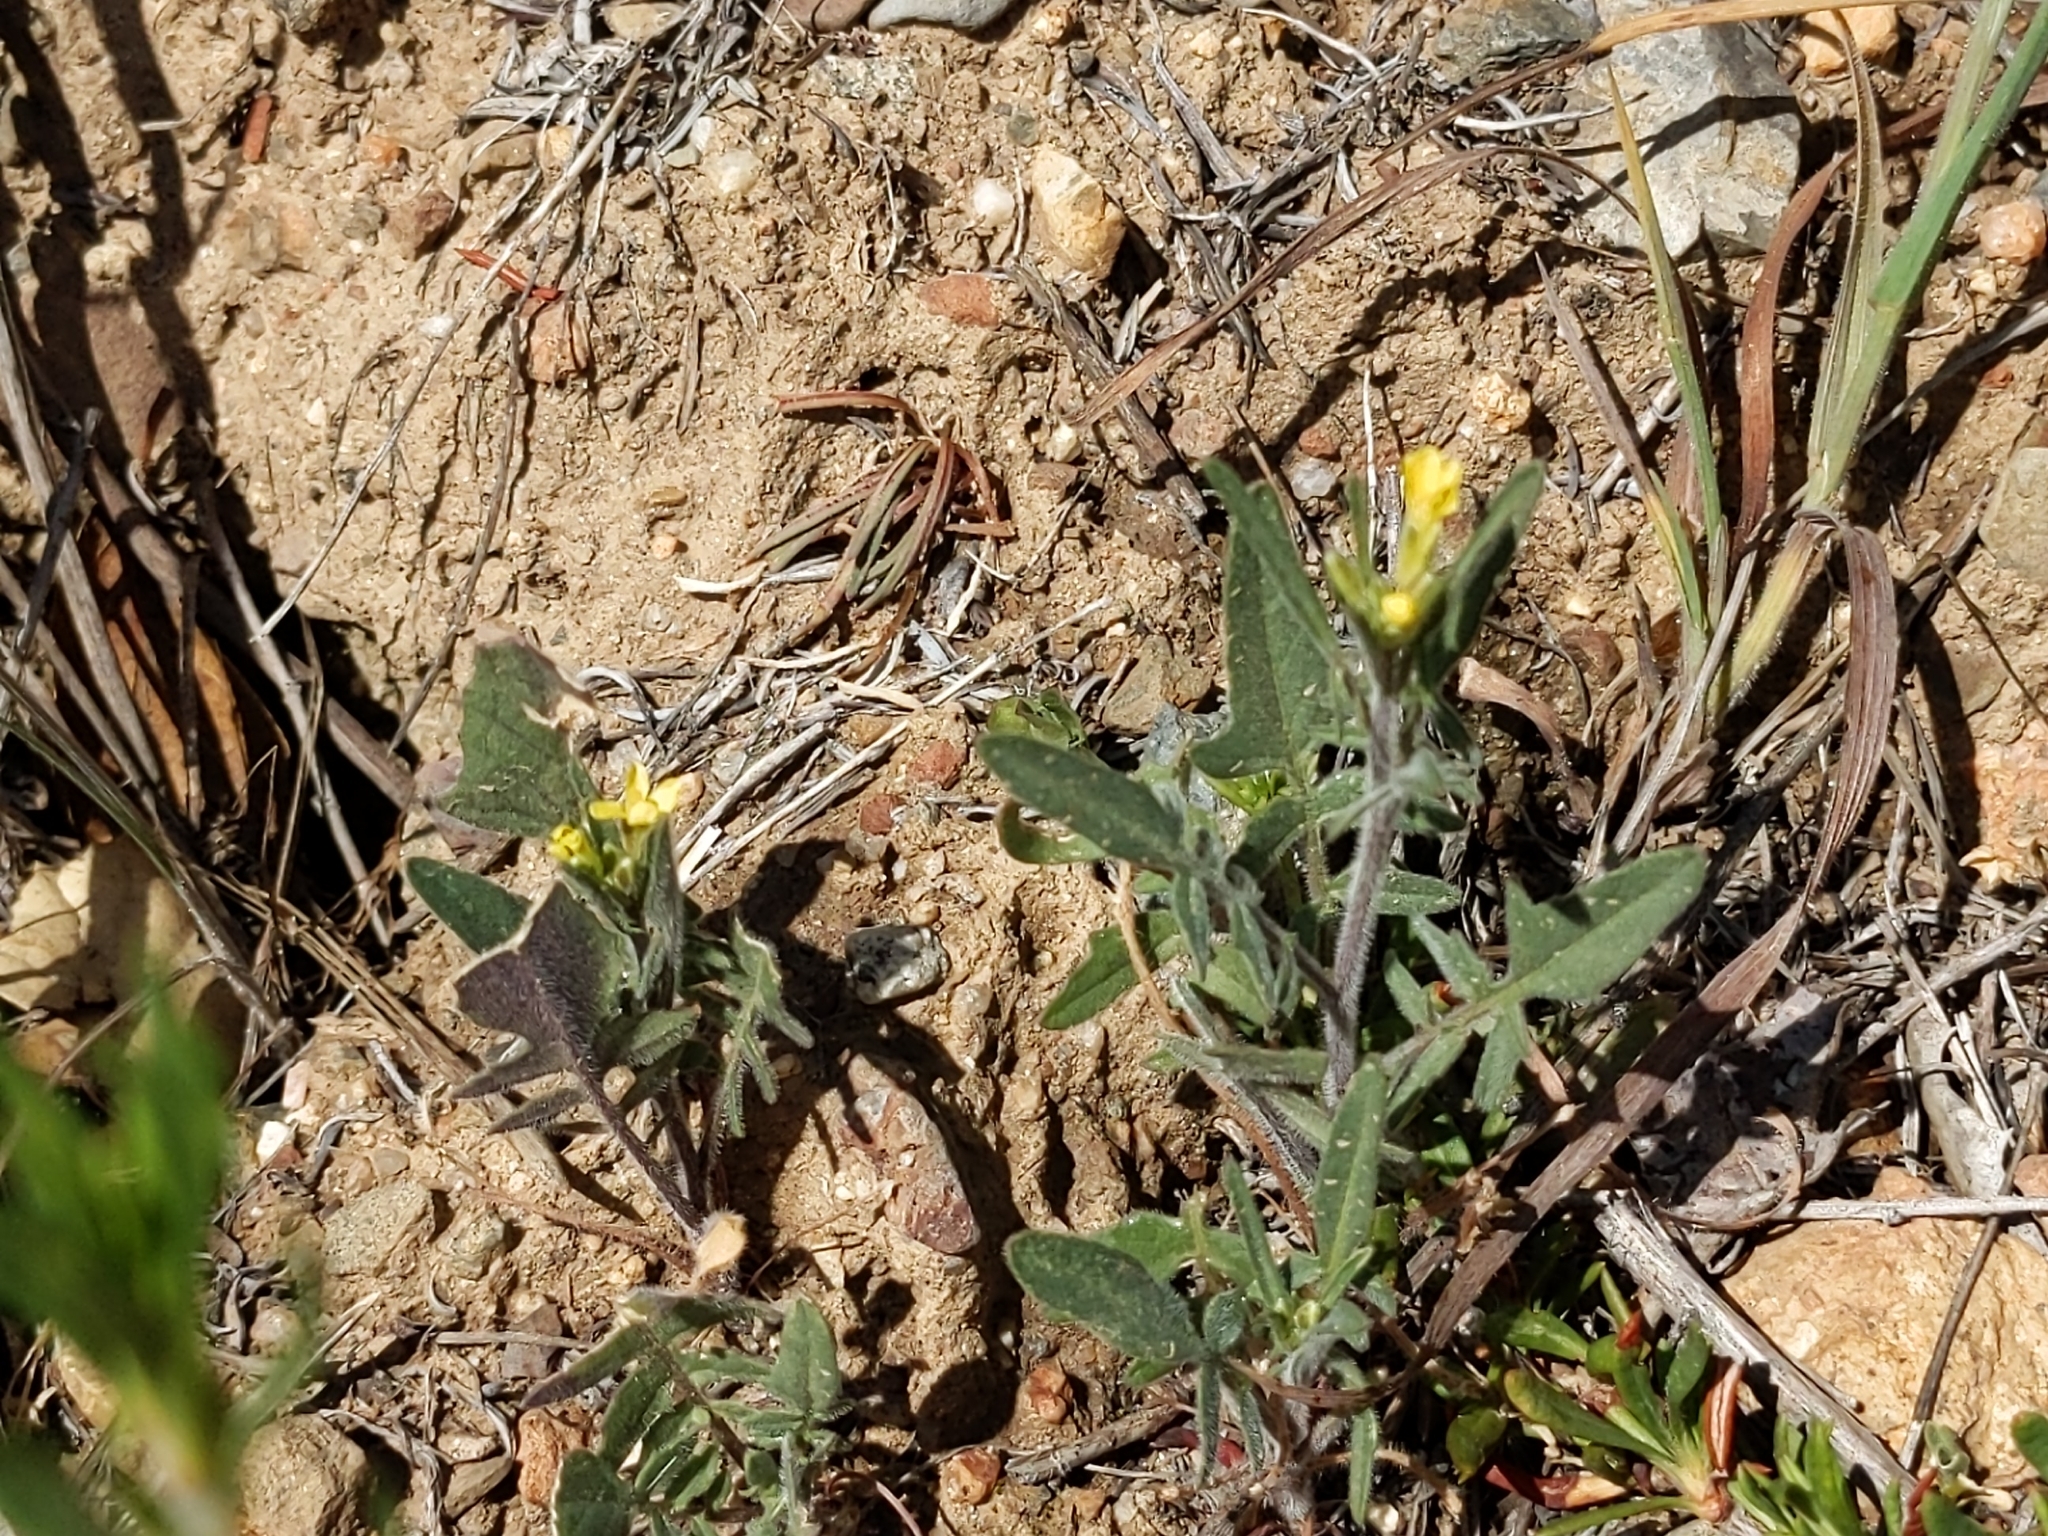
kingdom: Plantae
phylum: Tracheophyta
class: Magnoliopsida
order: Brassicales
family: Brassicaceae
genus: Sisymbrium
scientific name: Sisymbrium irio
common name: London rocket
